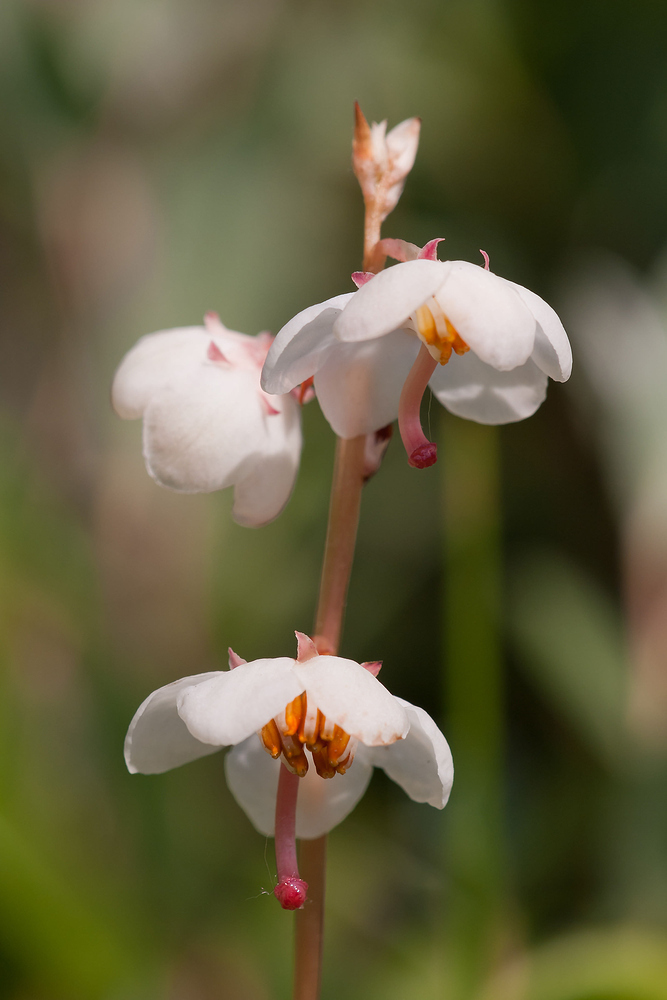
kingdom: Plantae
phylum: Tracheophyta
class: Magnoliopsida
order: Ericales
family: Ericaceae
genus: Pyrola
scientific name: Pyrola rotundifolia
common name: Round-leaved wintergreen
